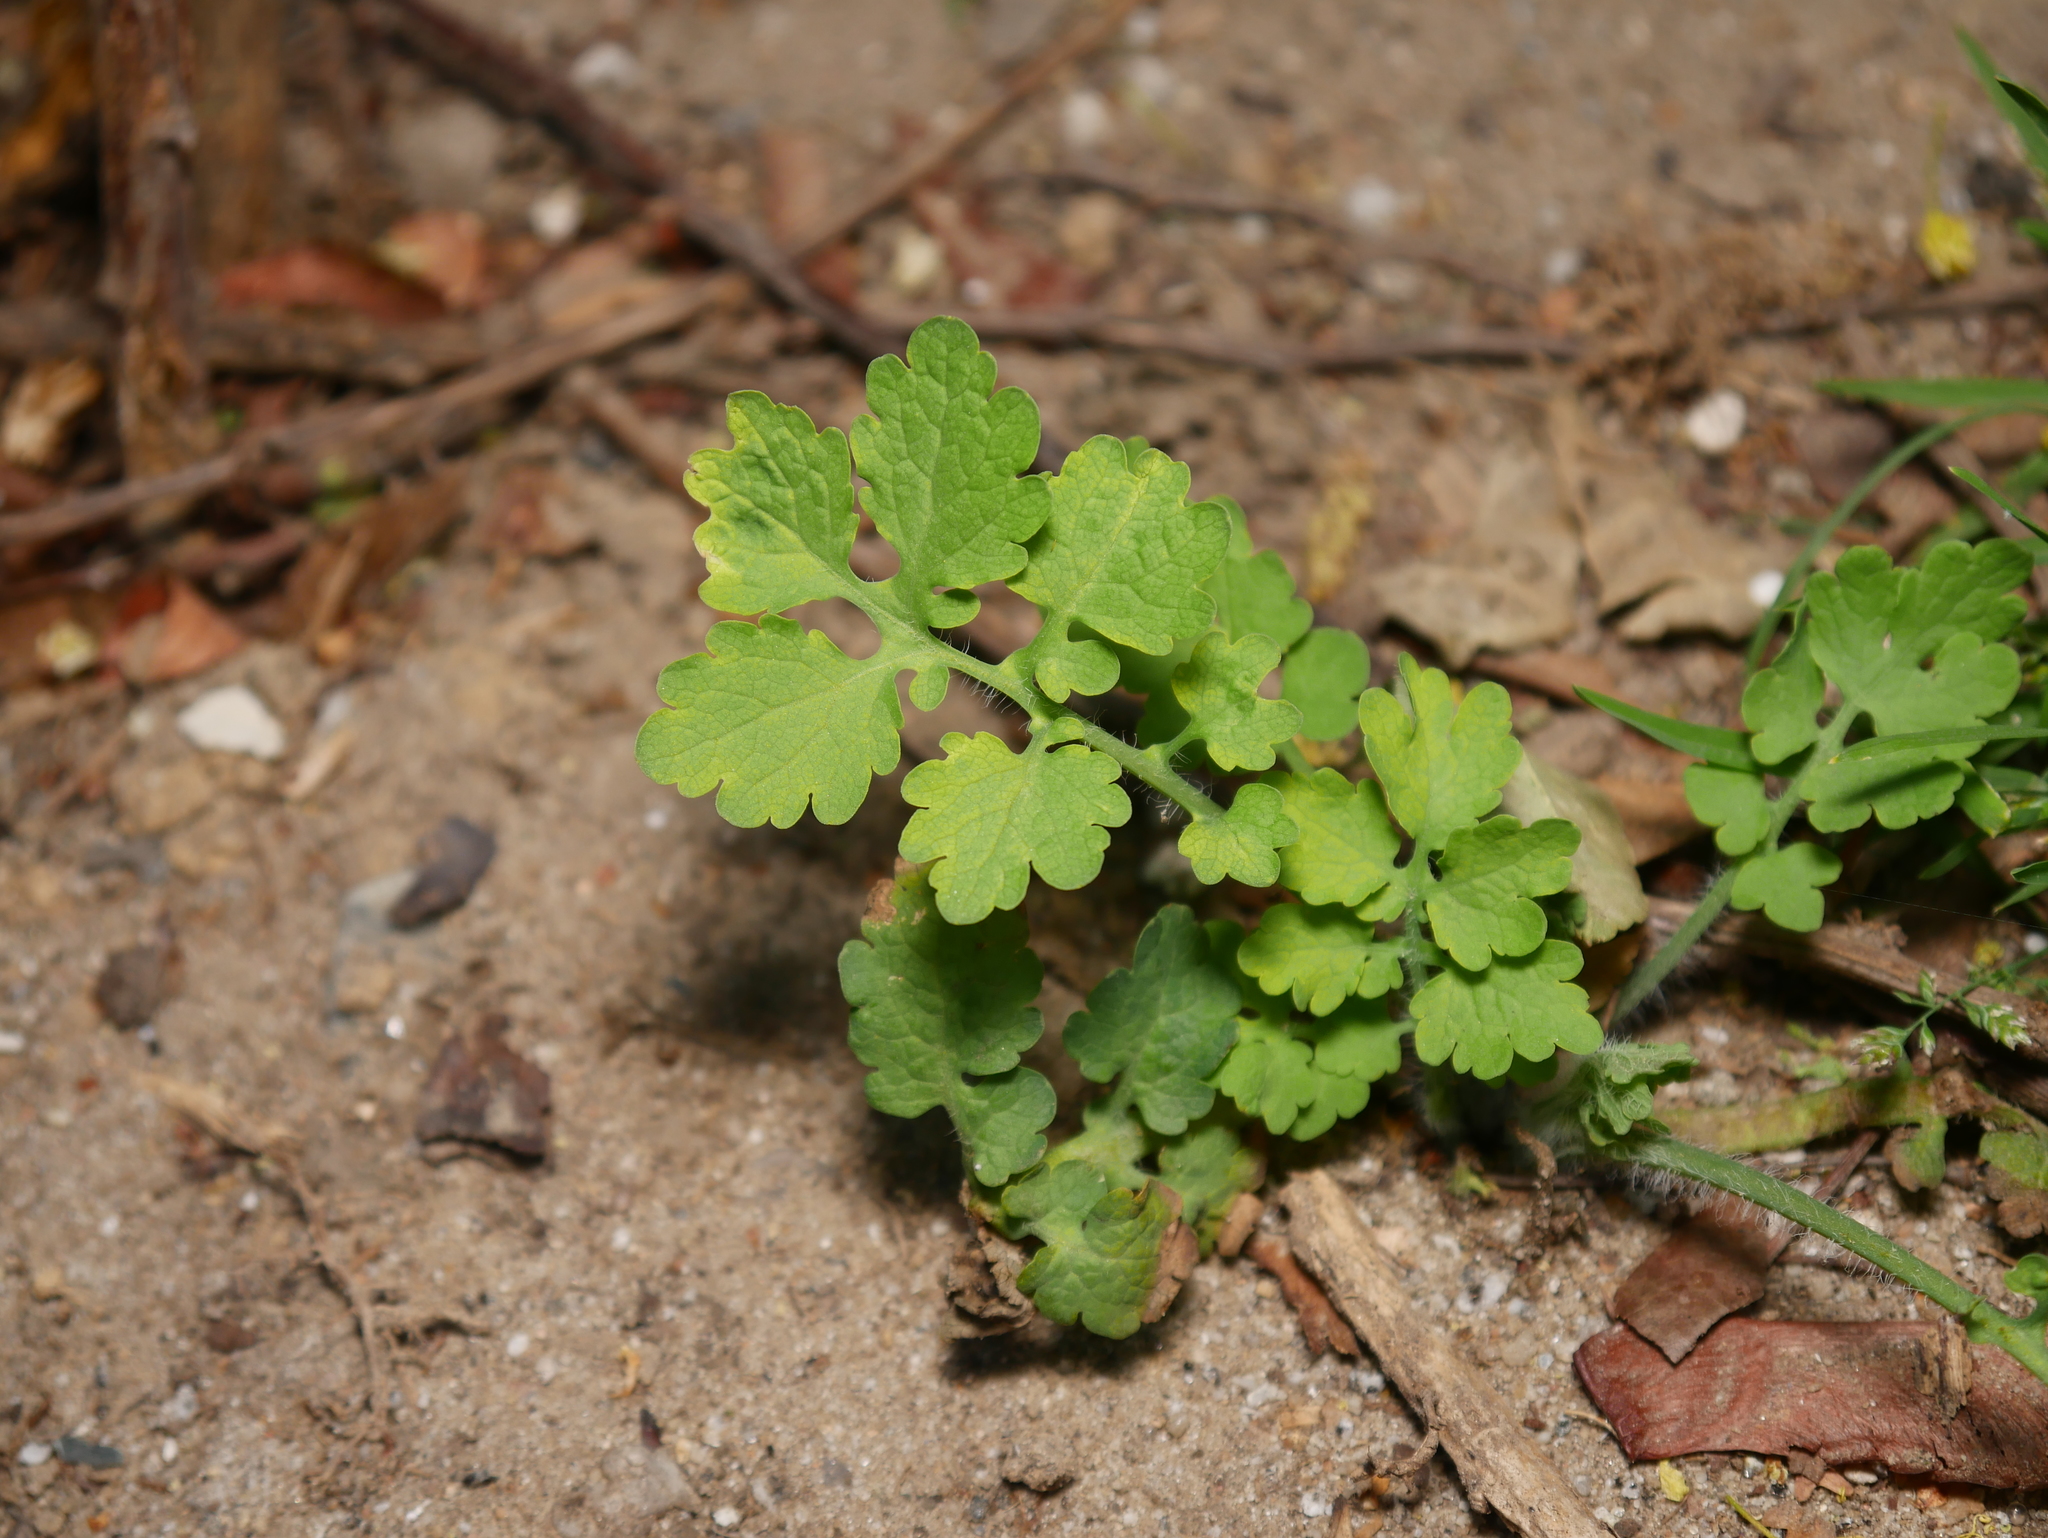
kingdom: Plantae
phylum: Tracheophyta
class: Magnoliopsida
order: Ranunculales
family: Papaveraceae
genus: Chelidonium
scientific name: Chelidonium majus
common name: Greater celandine
